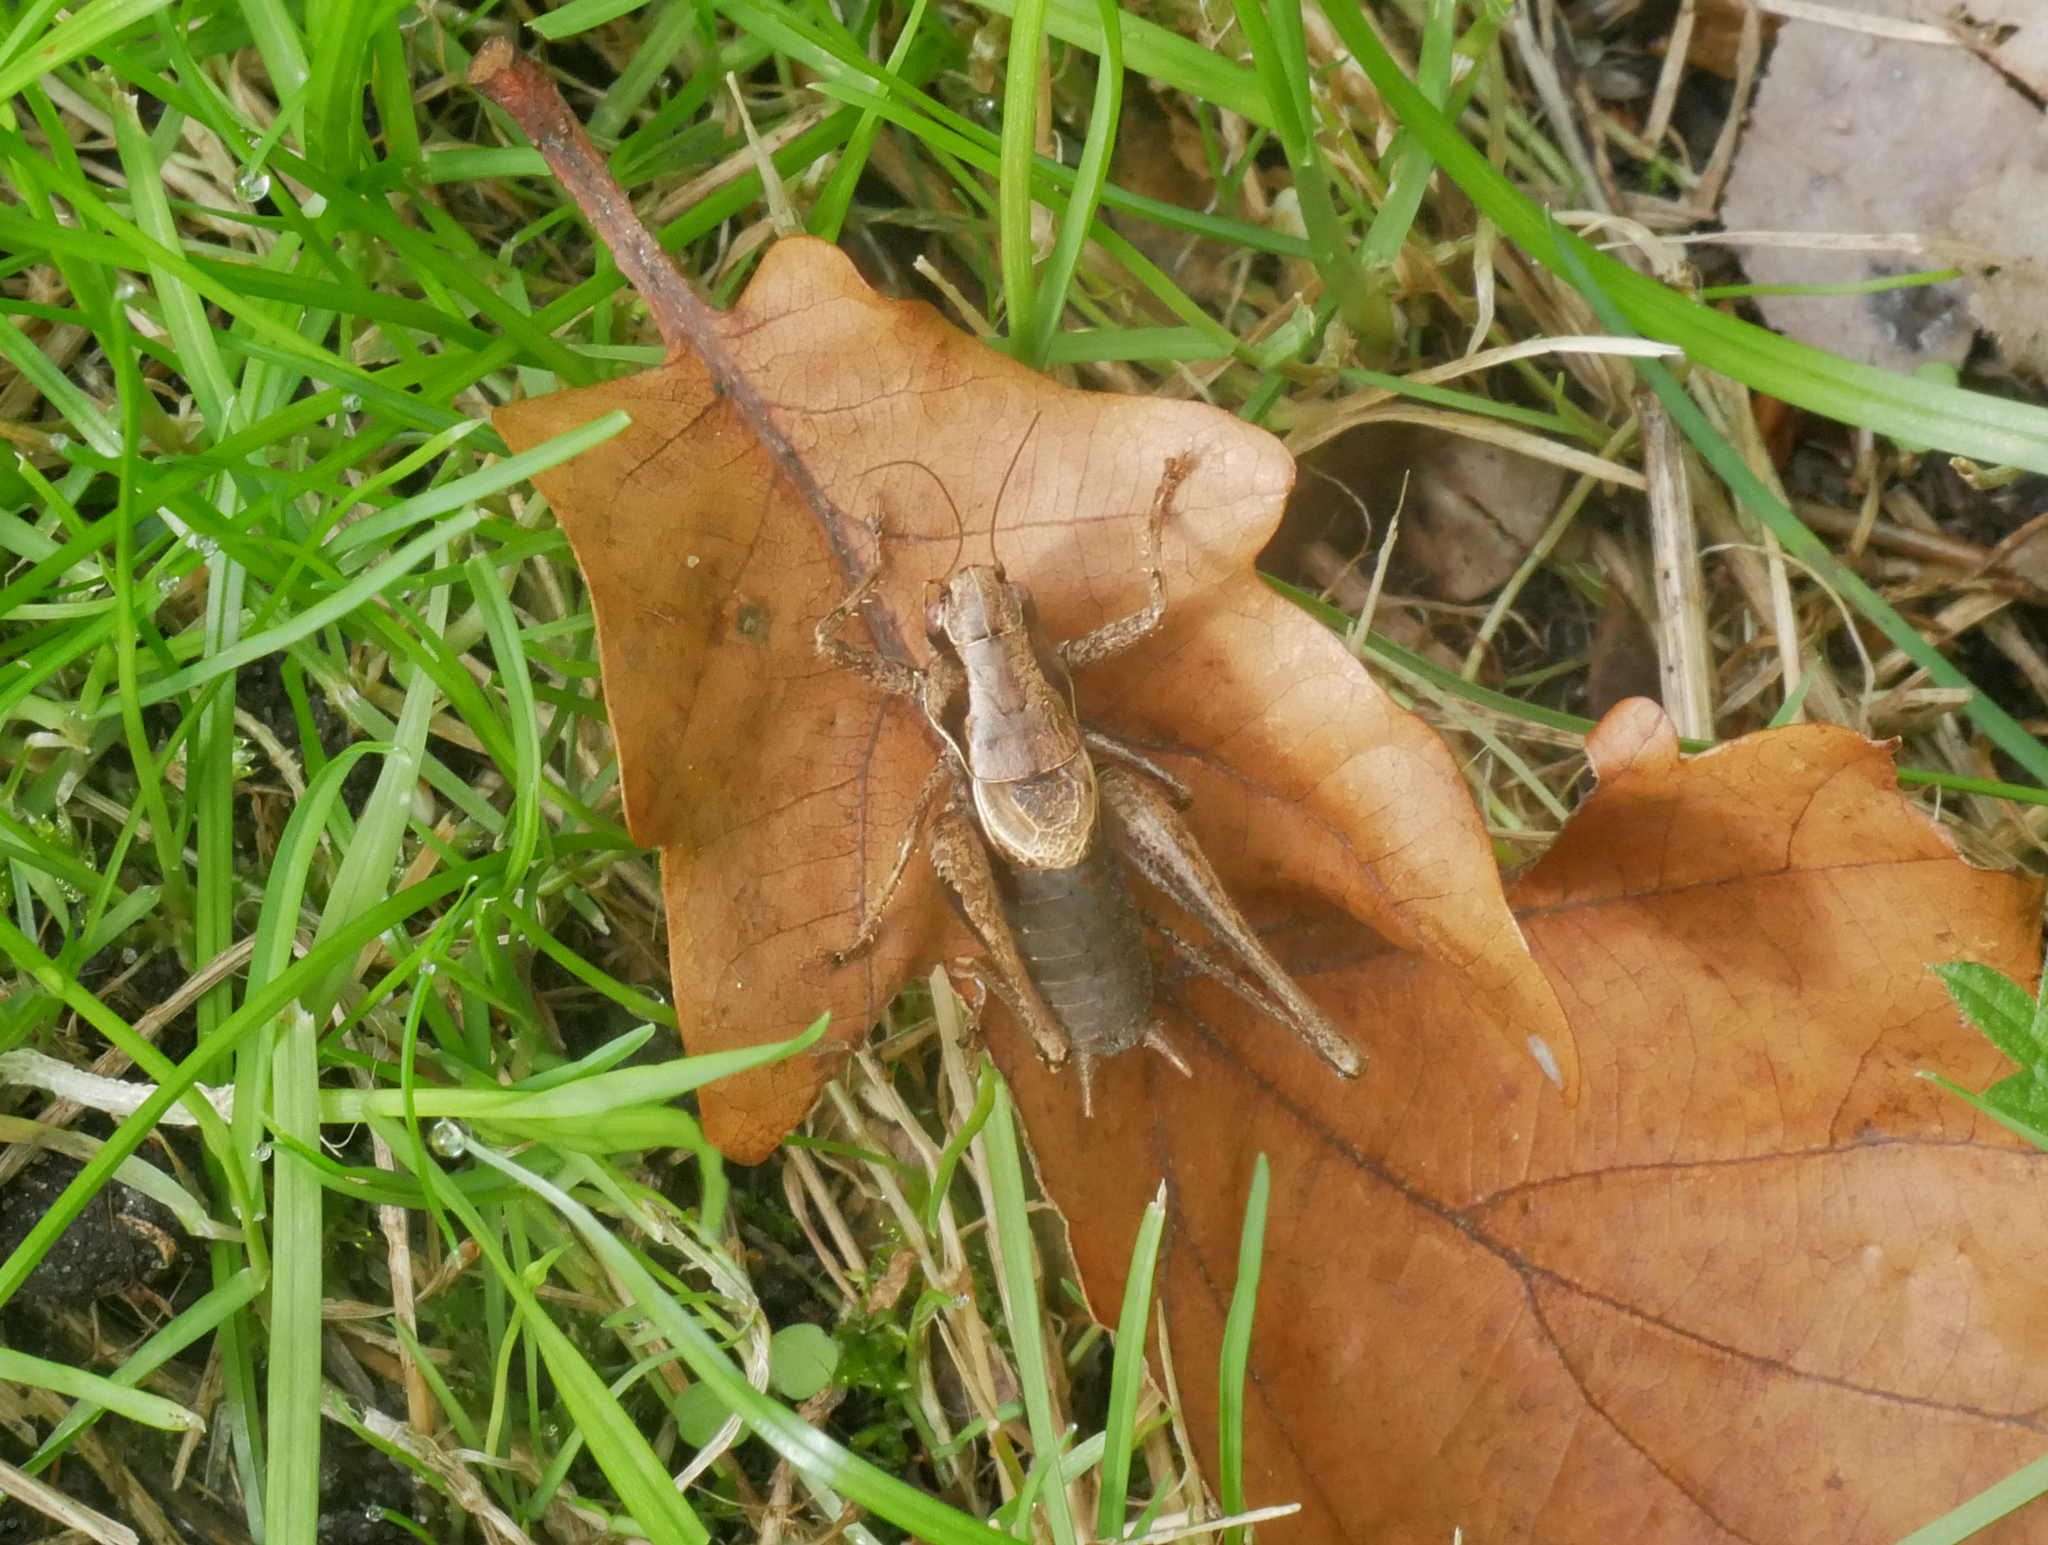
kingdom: Animalia
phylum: Arthropoda
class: Insecta
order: Orthoptera
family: Tettigoniidae
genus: Pholidoptera
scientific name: Pholidoptera griseoaptera
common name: Dark bush-cricket
